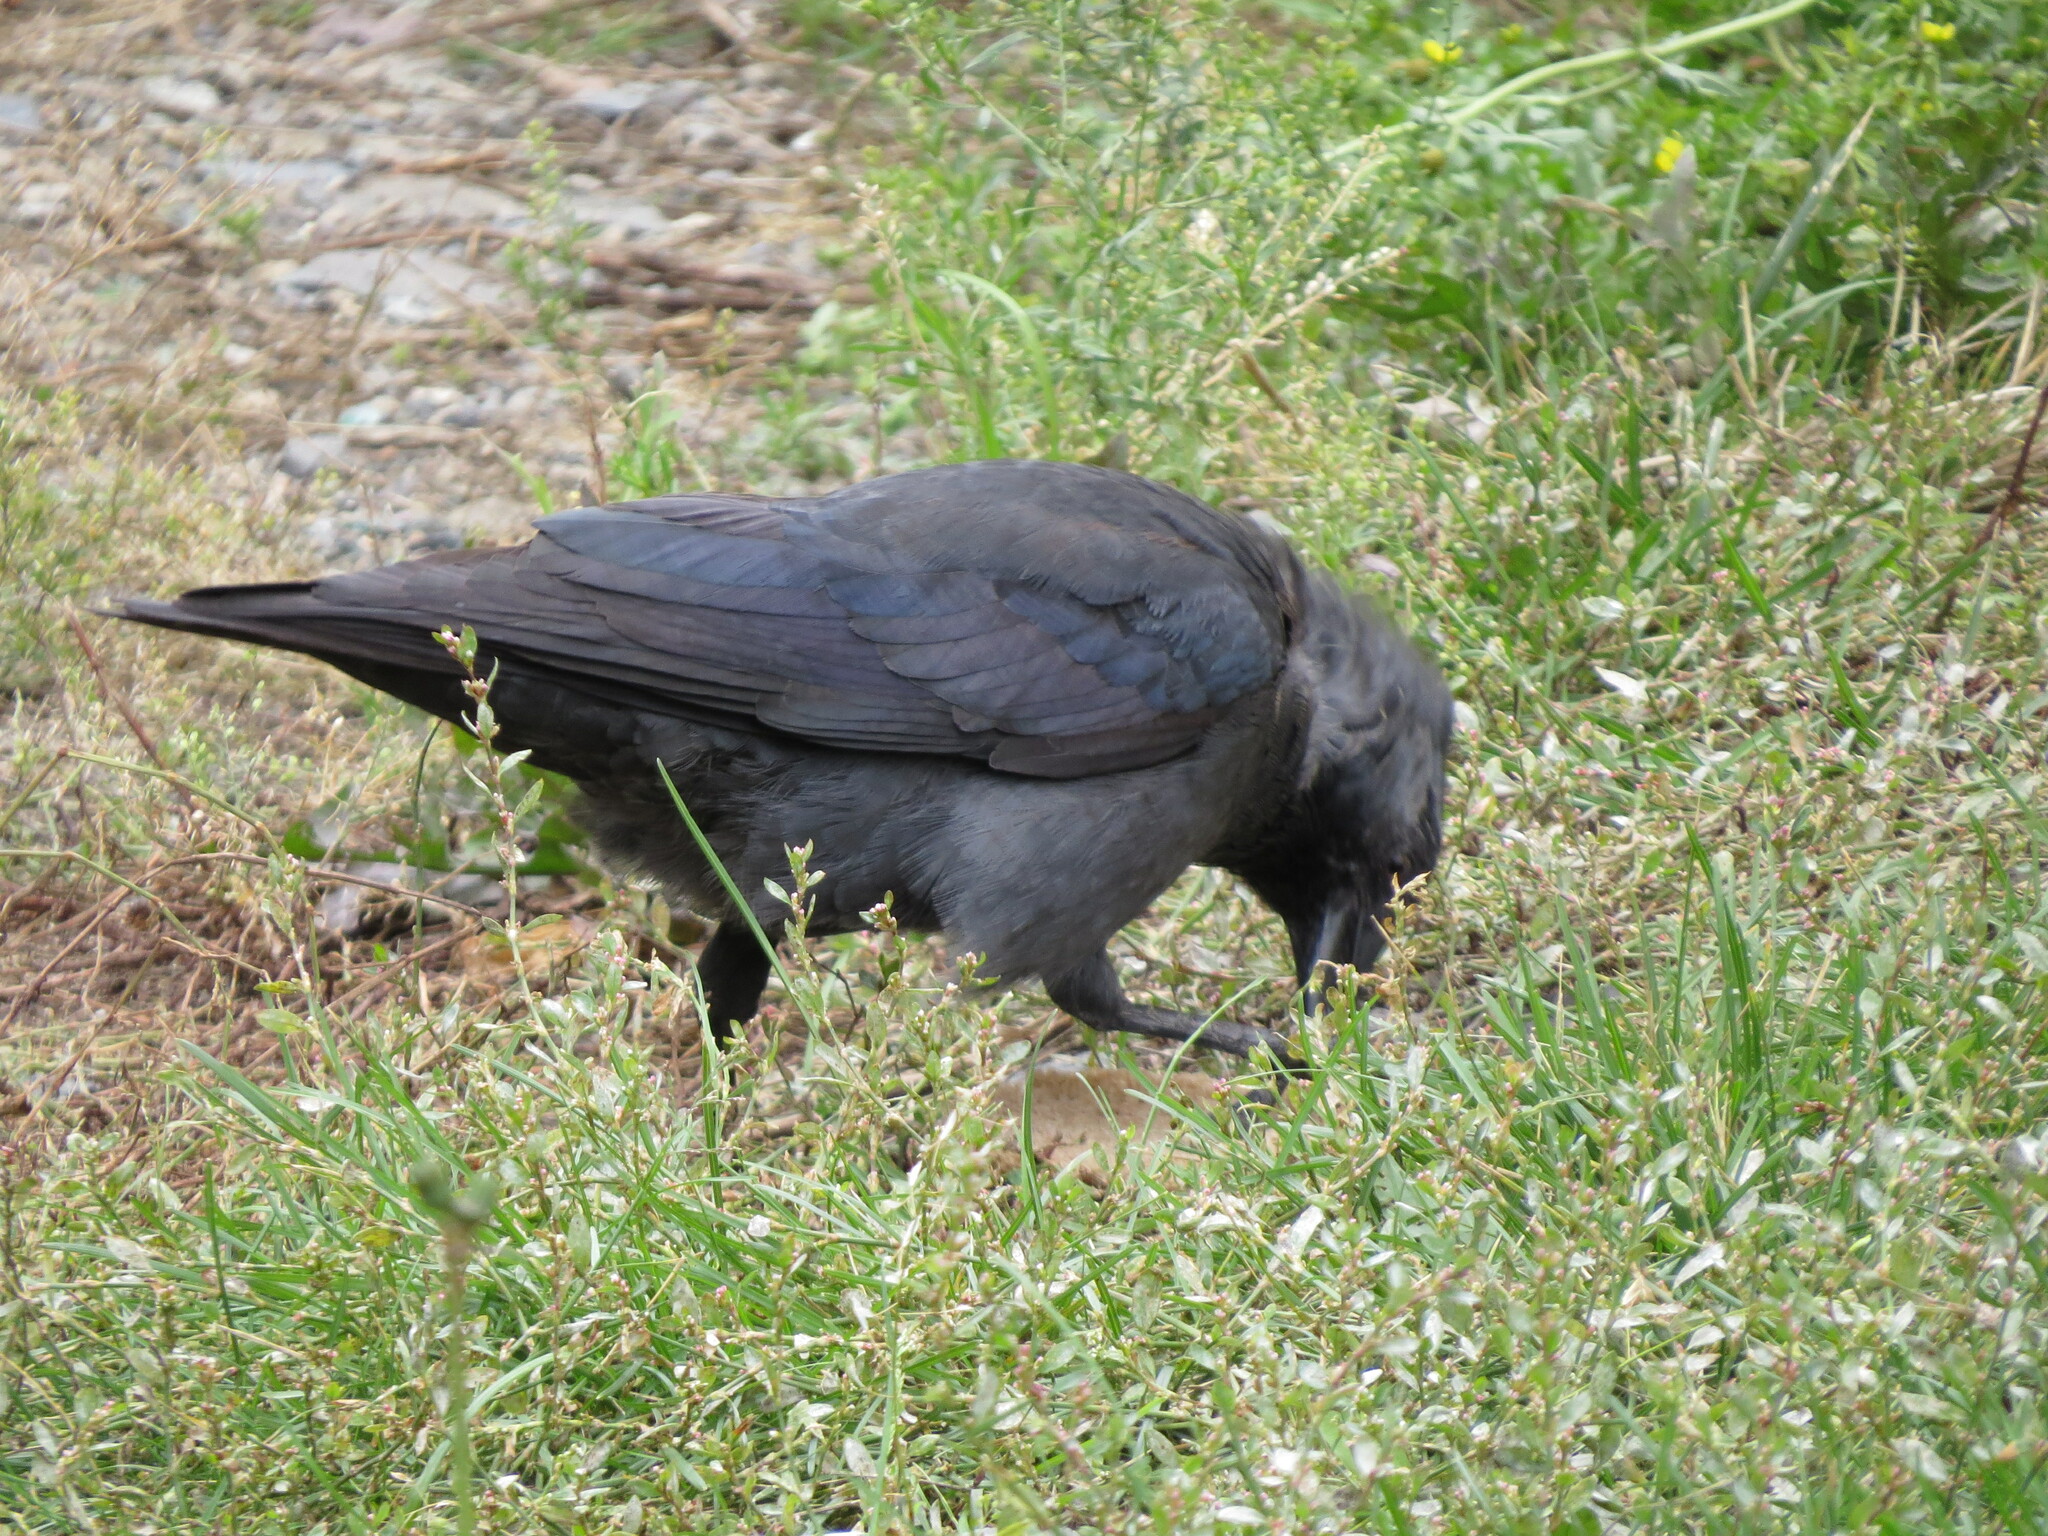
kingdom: Animalia
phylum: Chordata
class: Aves
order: Passeriformes
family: Corvidae
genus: Coloeus
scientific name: Coloeus monedula
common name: Western jackdaw
